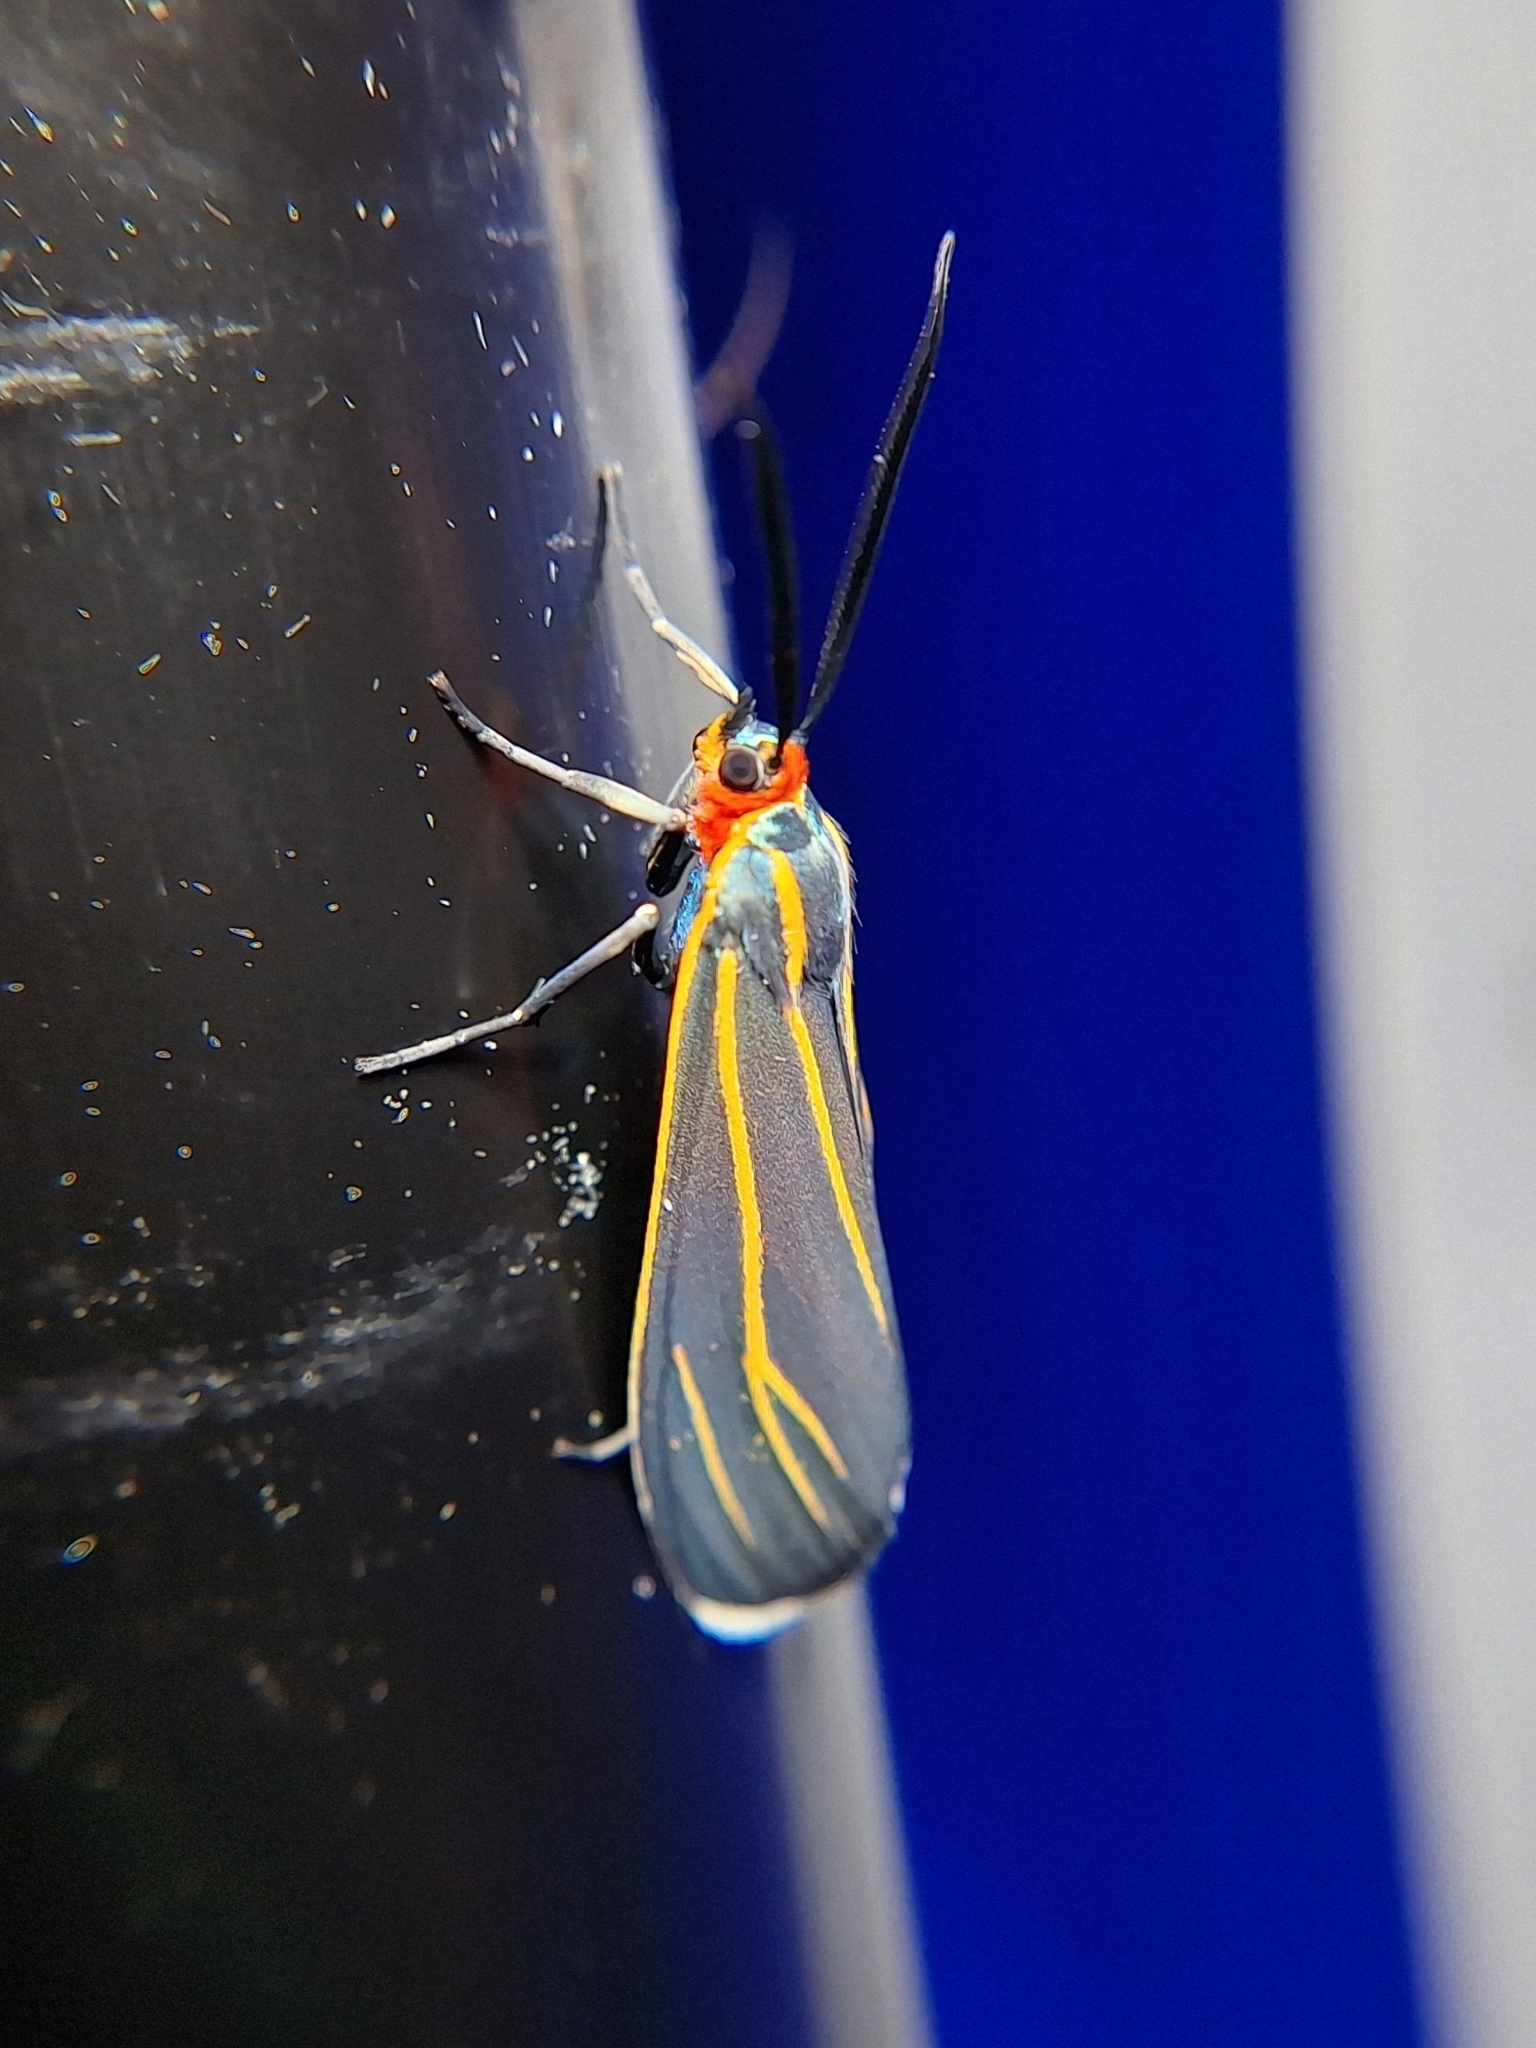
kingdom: Animalia
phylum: Arthropoda
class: Insecta
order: Lepidoptera
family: Erebidae
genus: Ctenucha
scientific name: Ctenucha venosa
